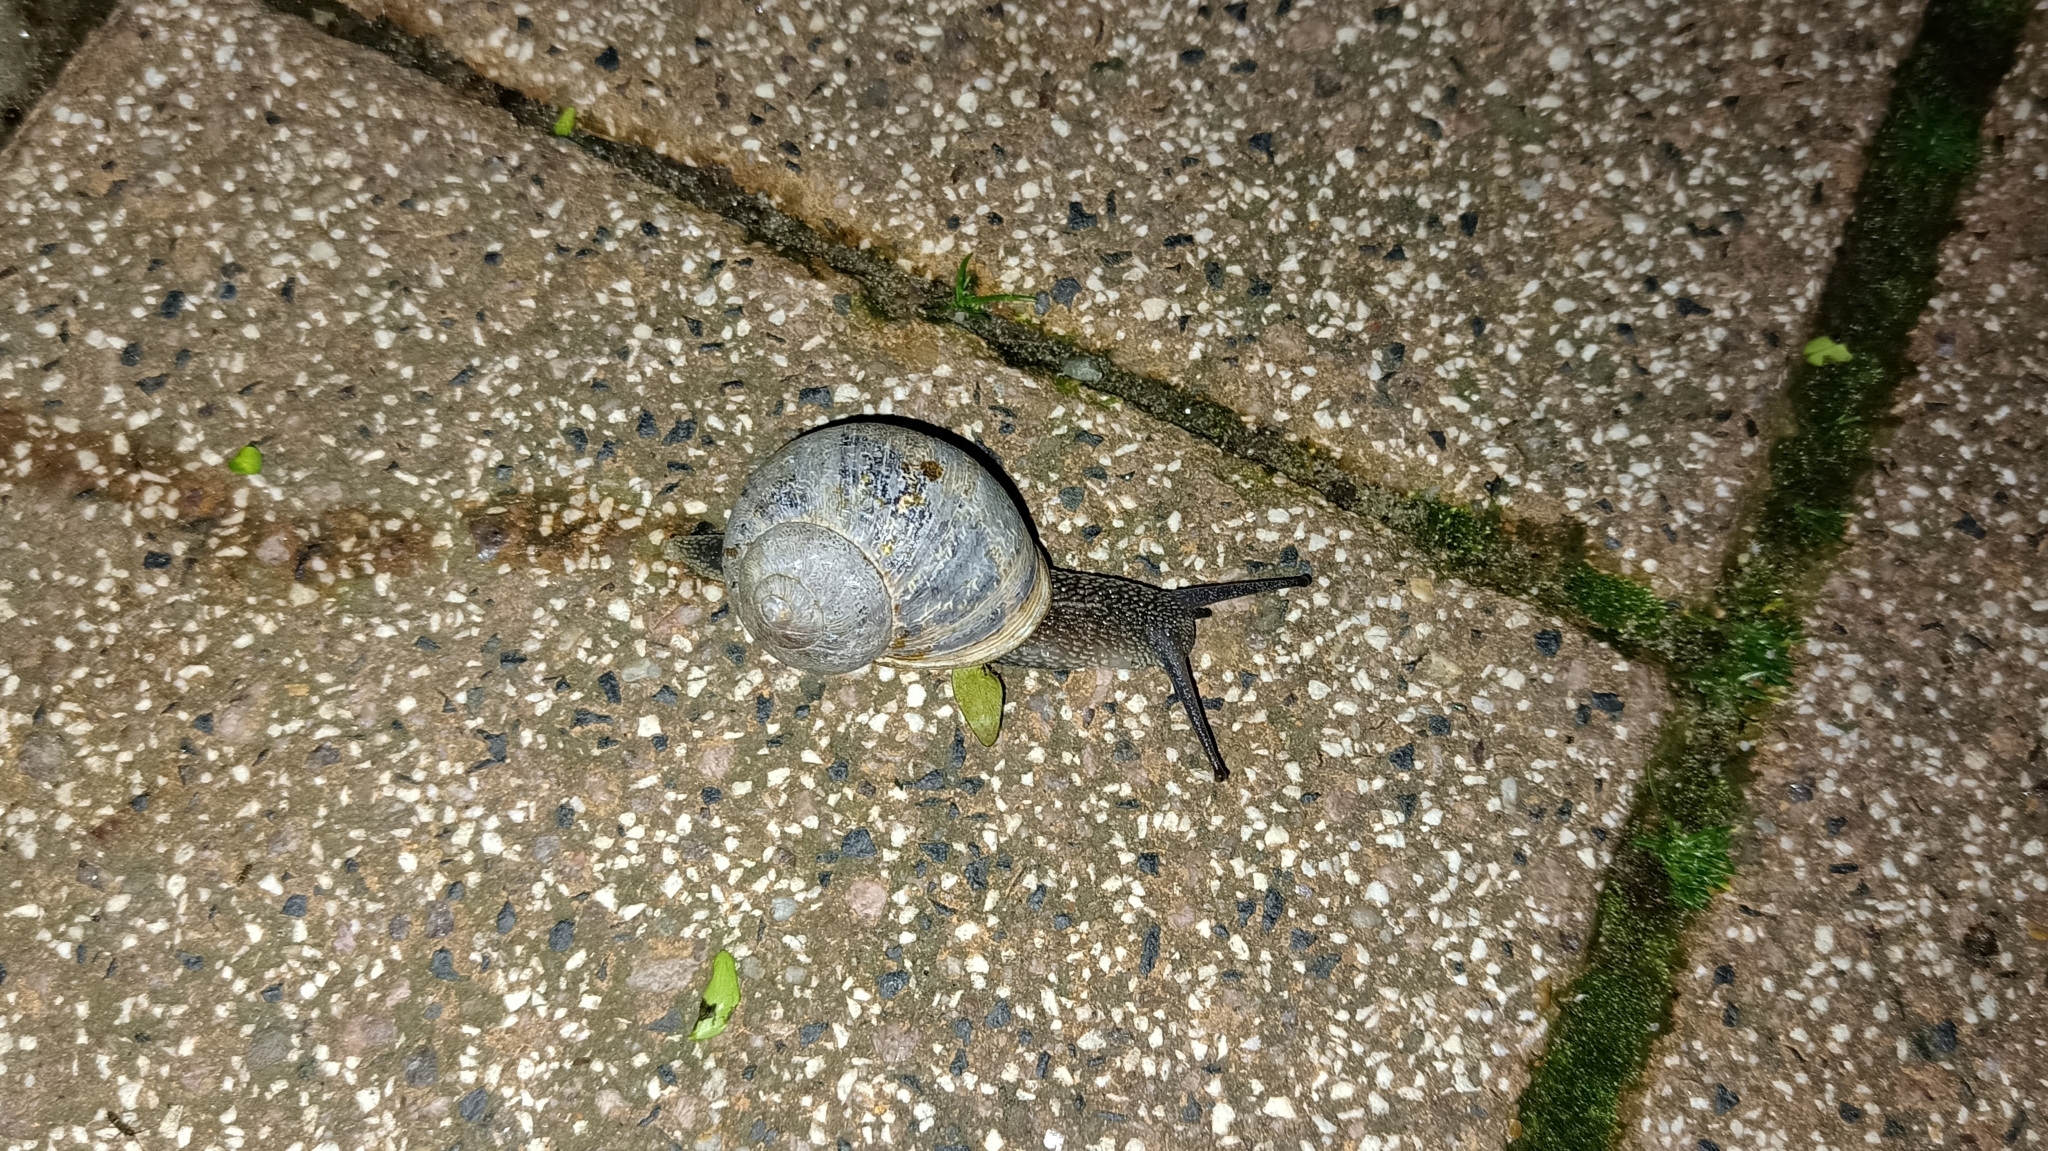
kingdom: Animalia
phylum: Mollusca
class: Gastropoda
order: Stylommatophora
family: Helicidae
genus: Cornu
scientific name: Cornu aspersum
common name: Brown garden snail
